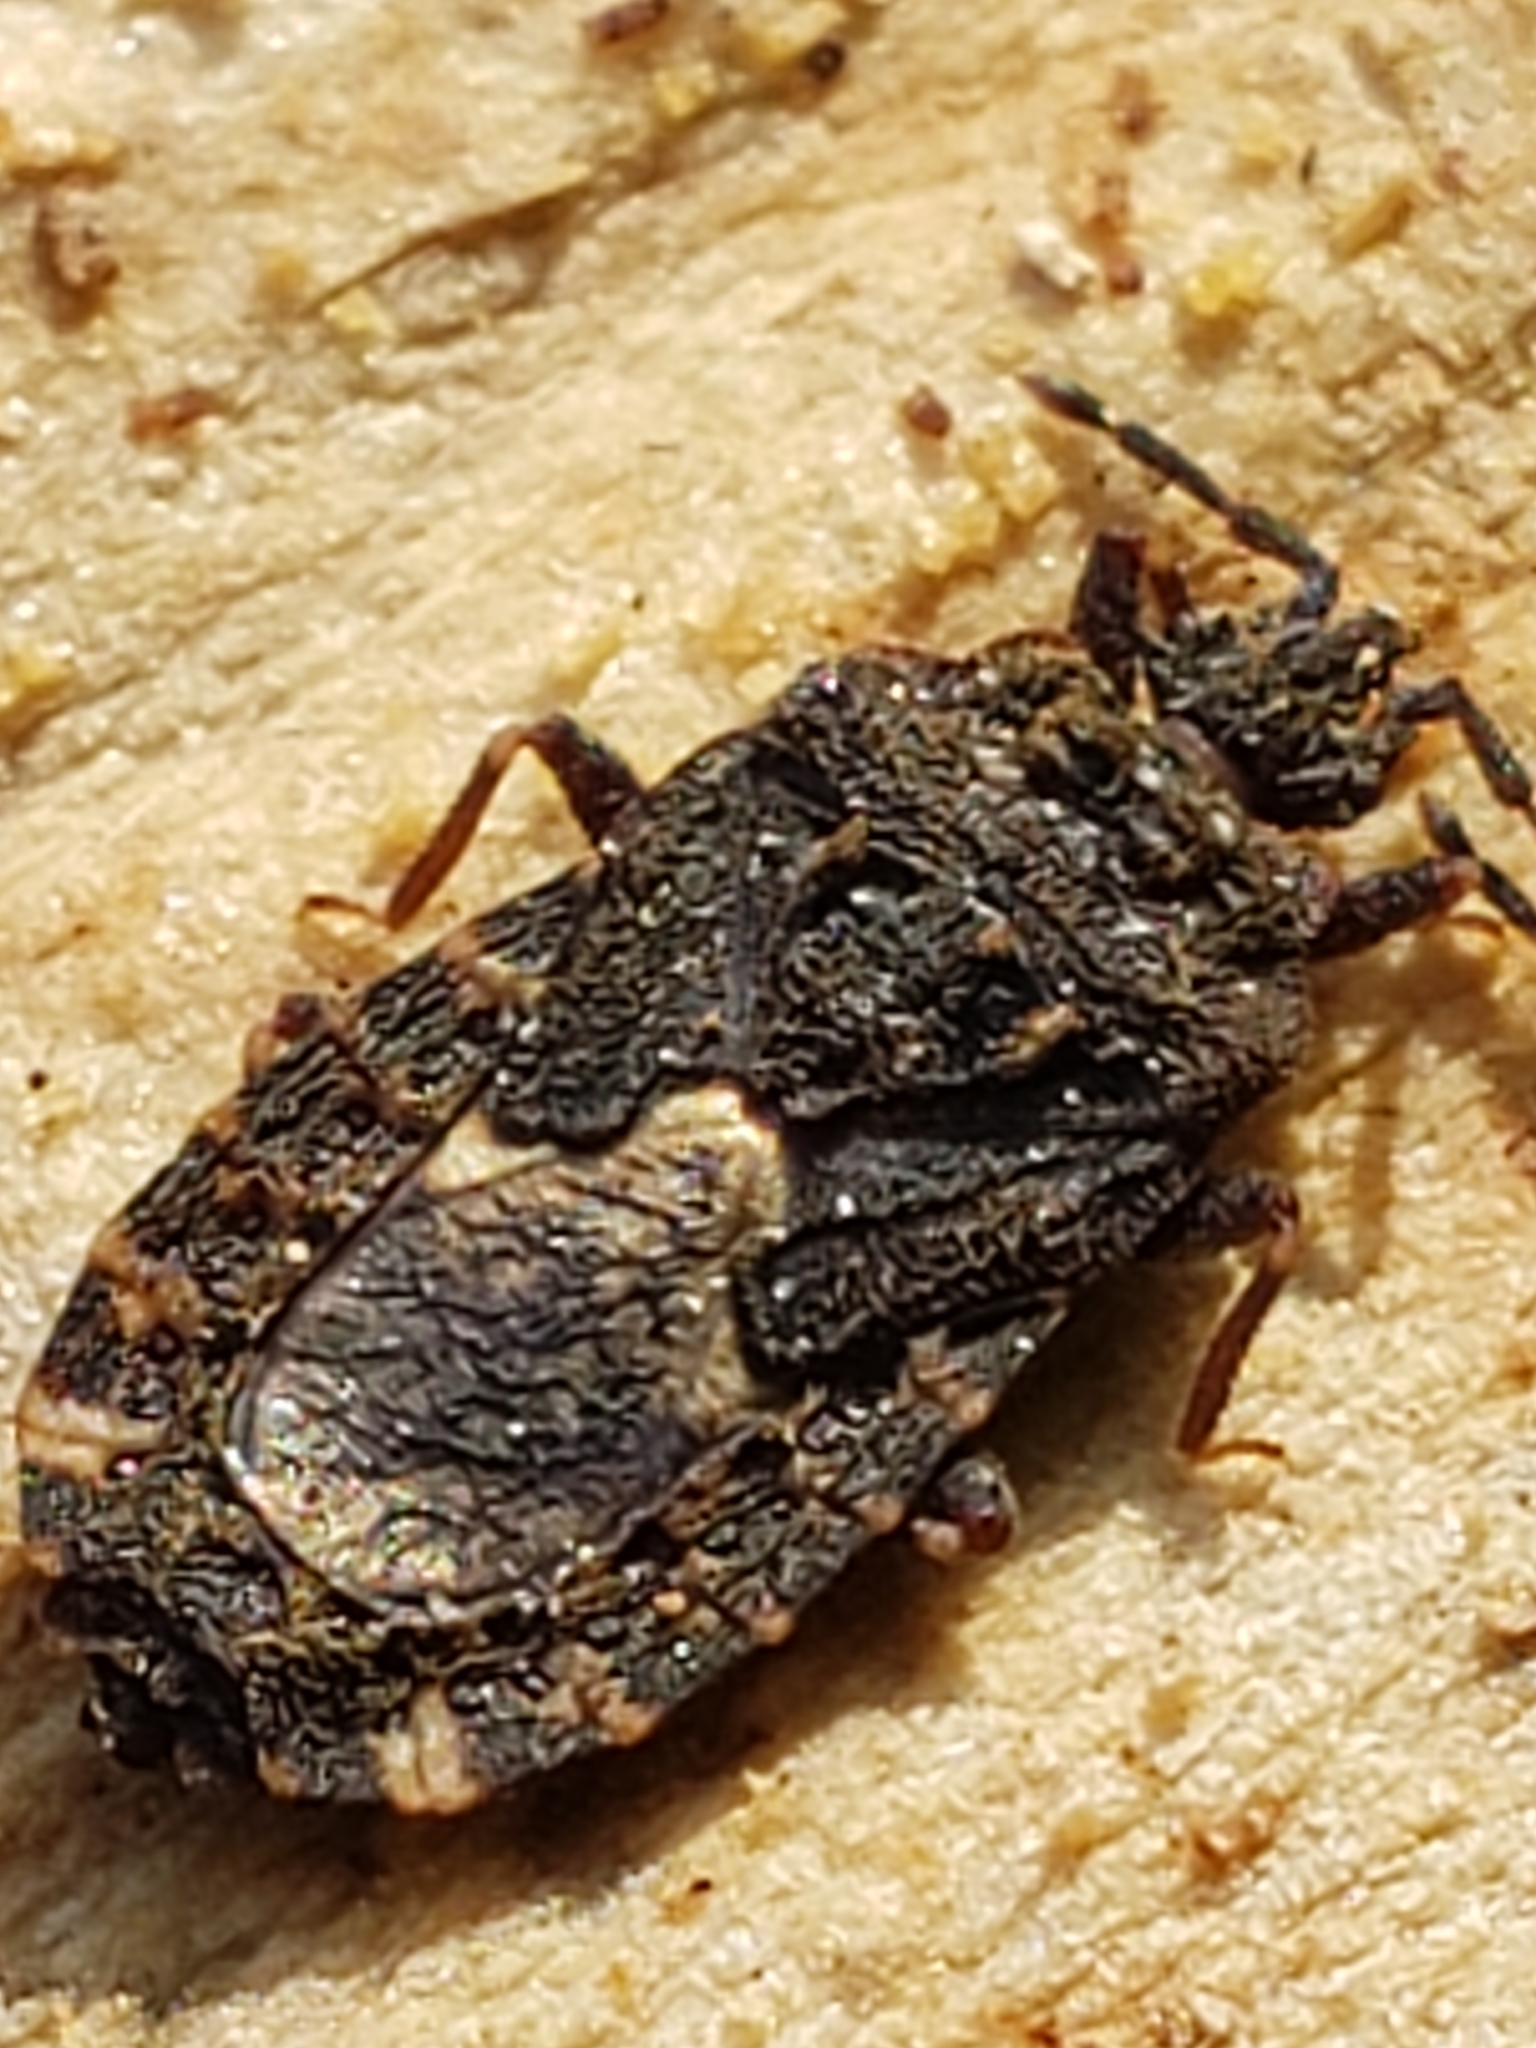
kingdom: Animalia
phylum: Arthropoda
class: Insecta
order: Hemiptera
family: Aradidae
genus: Mezira
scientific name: Mezira
